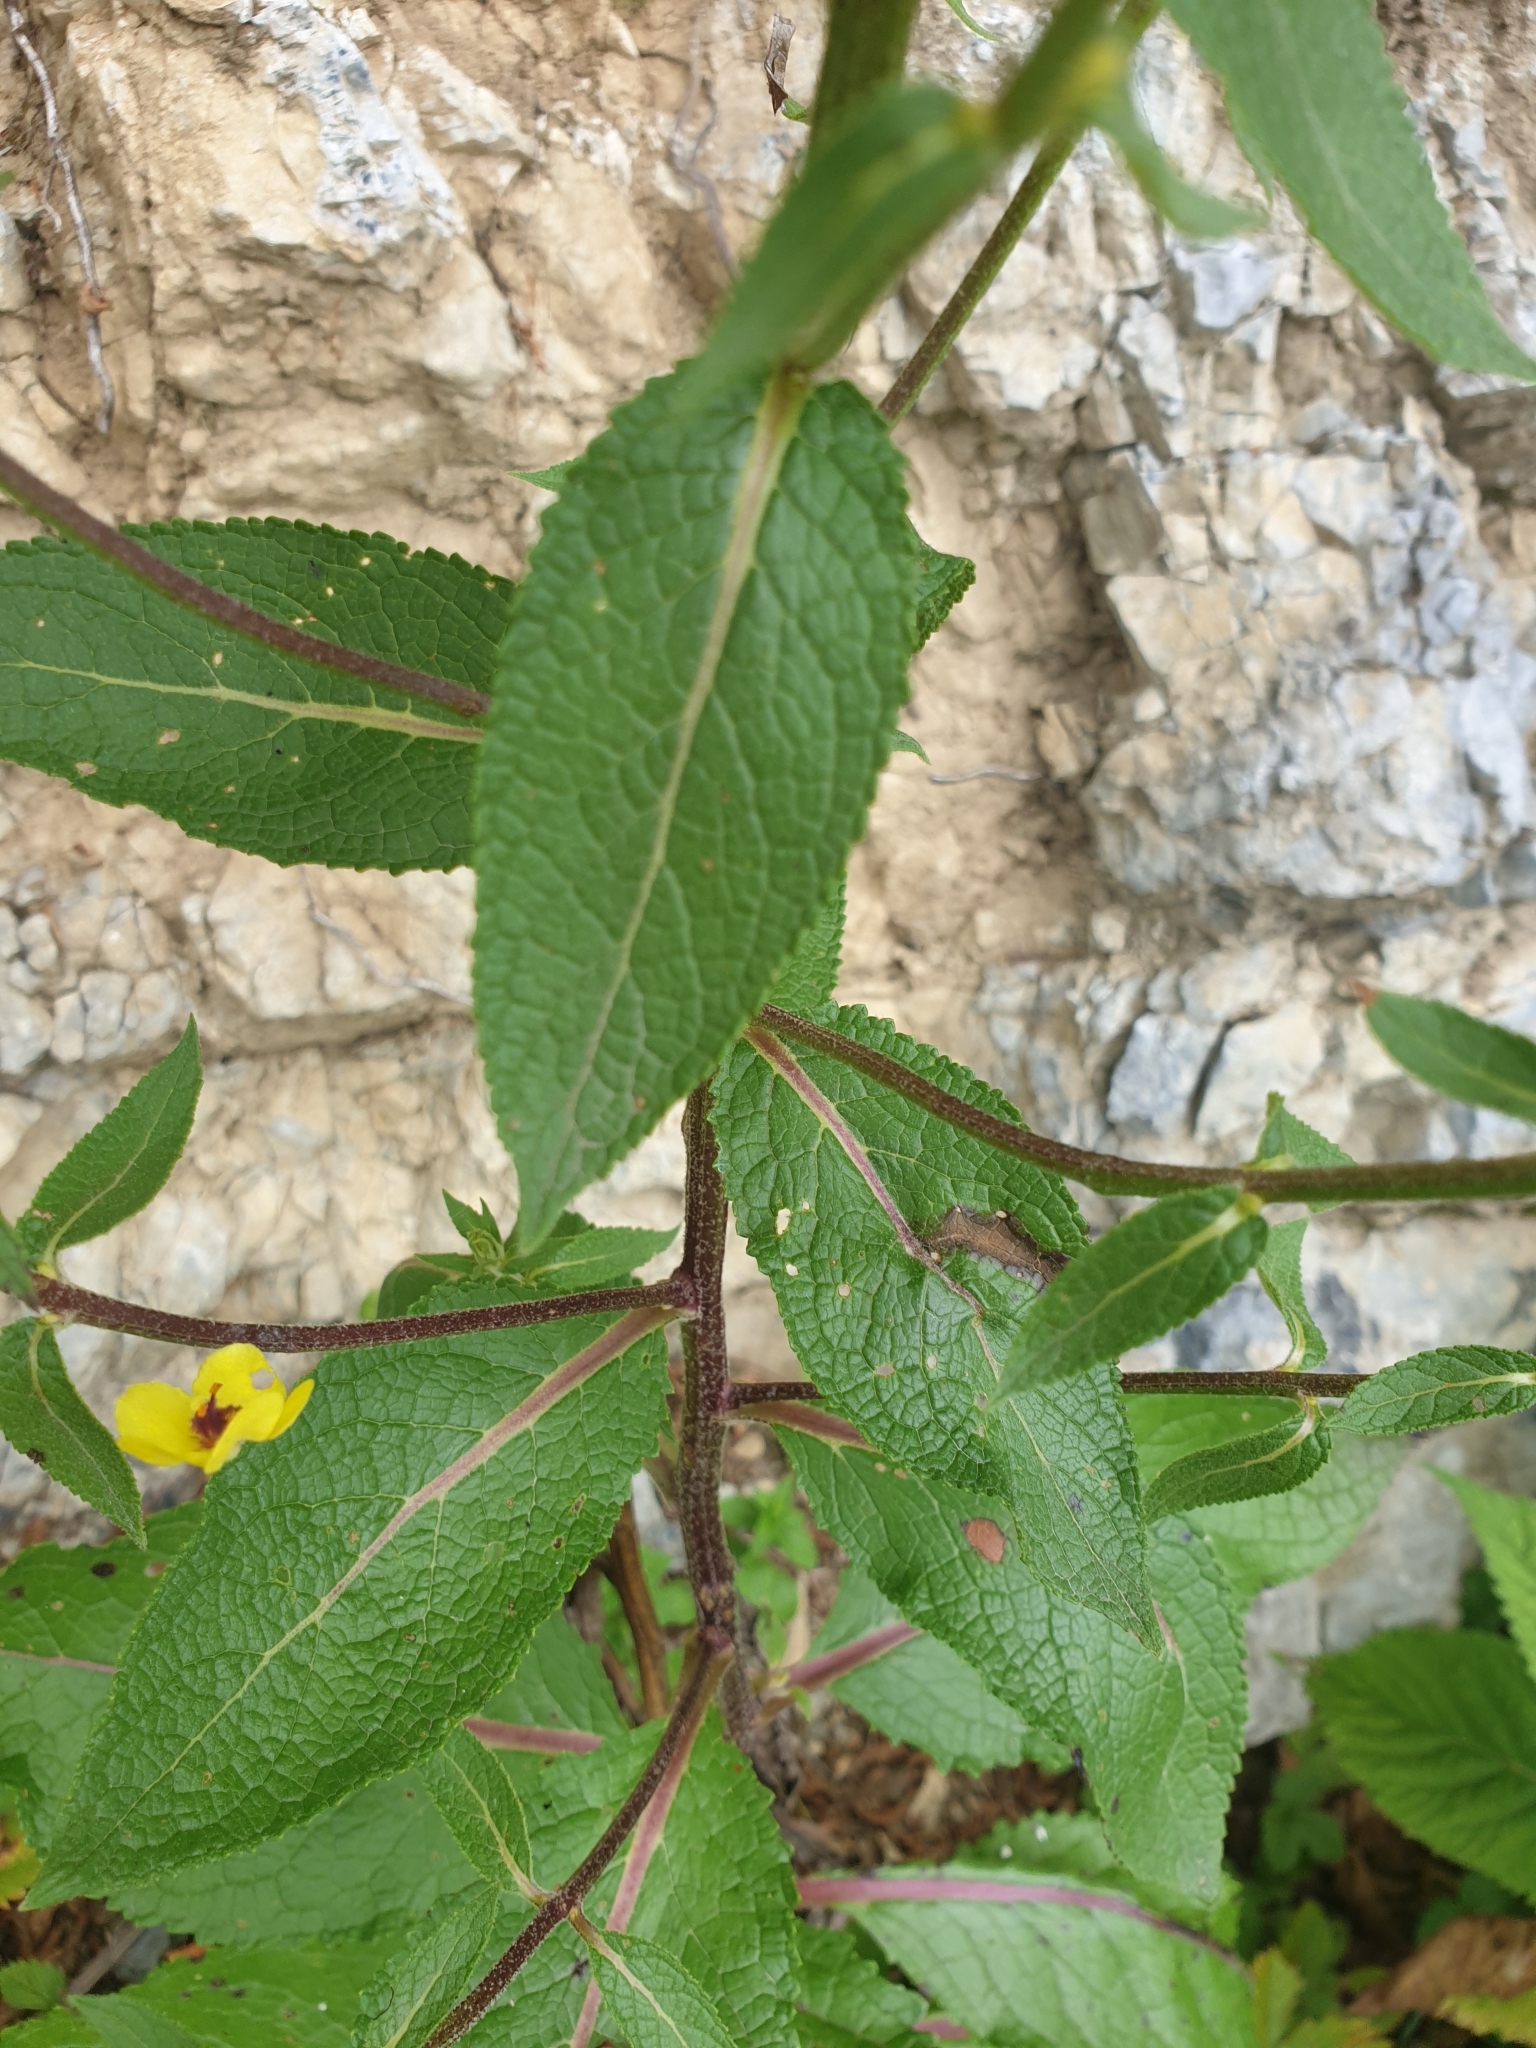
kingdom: Plantae
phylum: Tracheophyta
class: Magnoliopsida
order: Lamiales
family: Scrophulariaceae
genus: Verbascum
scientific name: Verbascum nigrum
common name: Dark mullein
